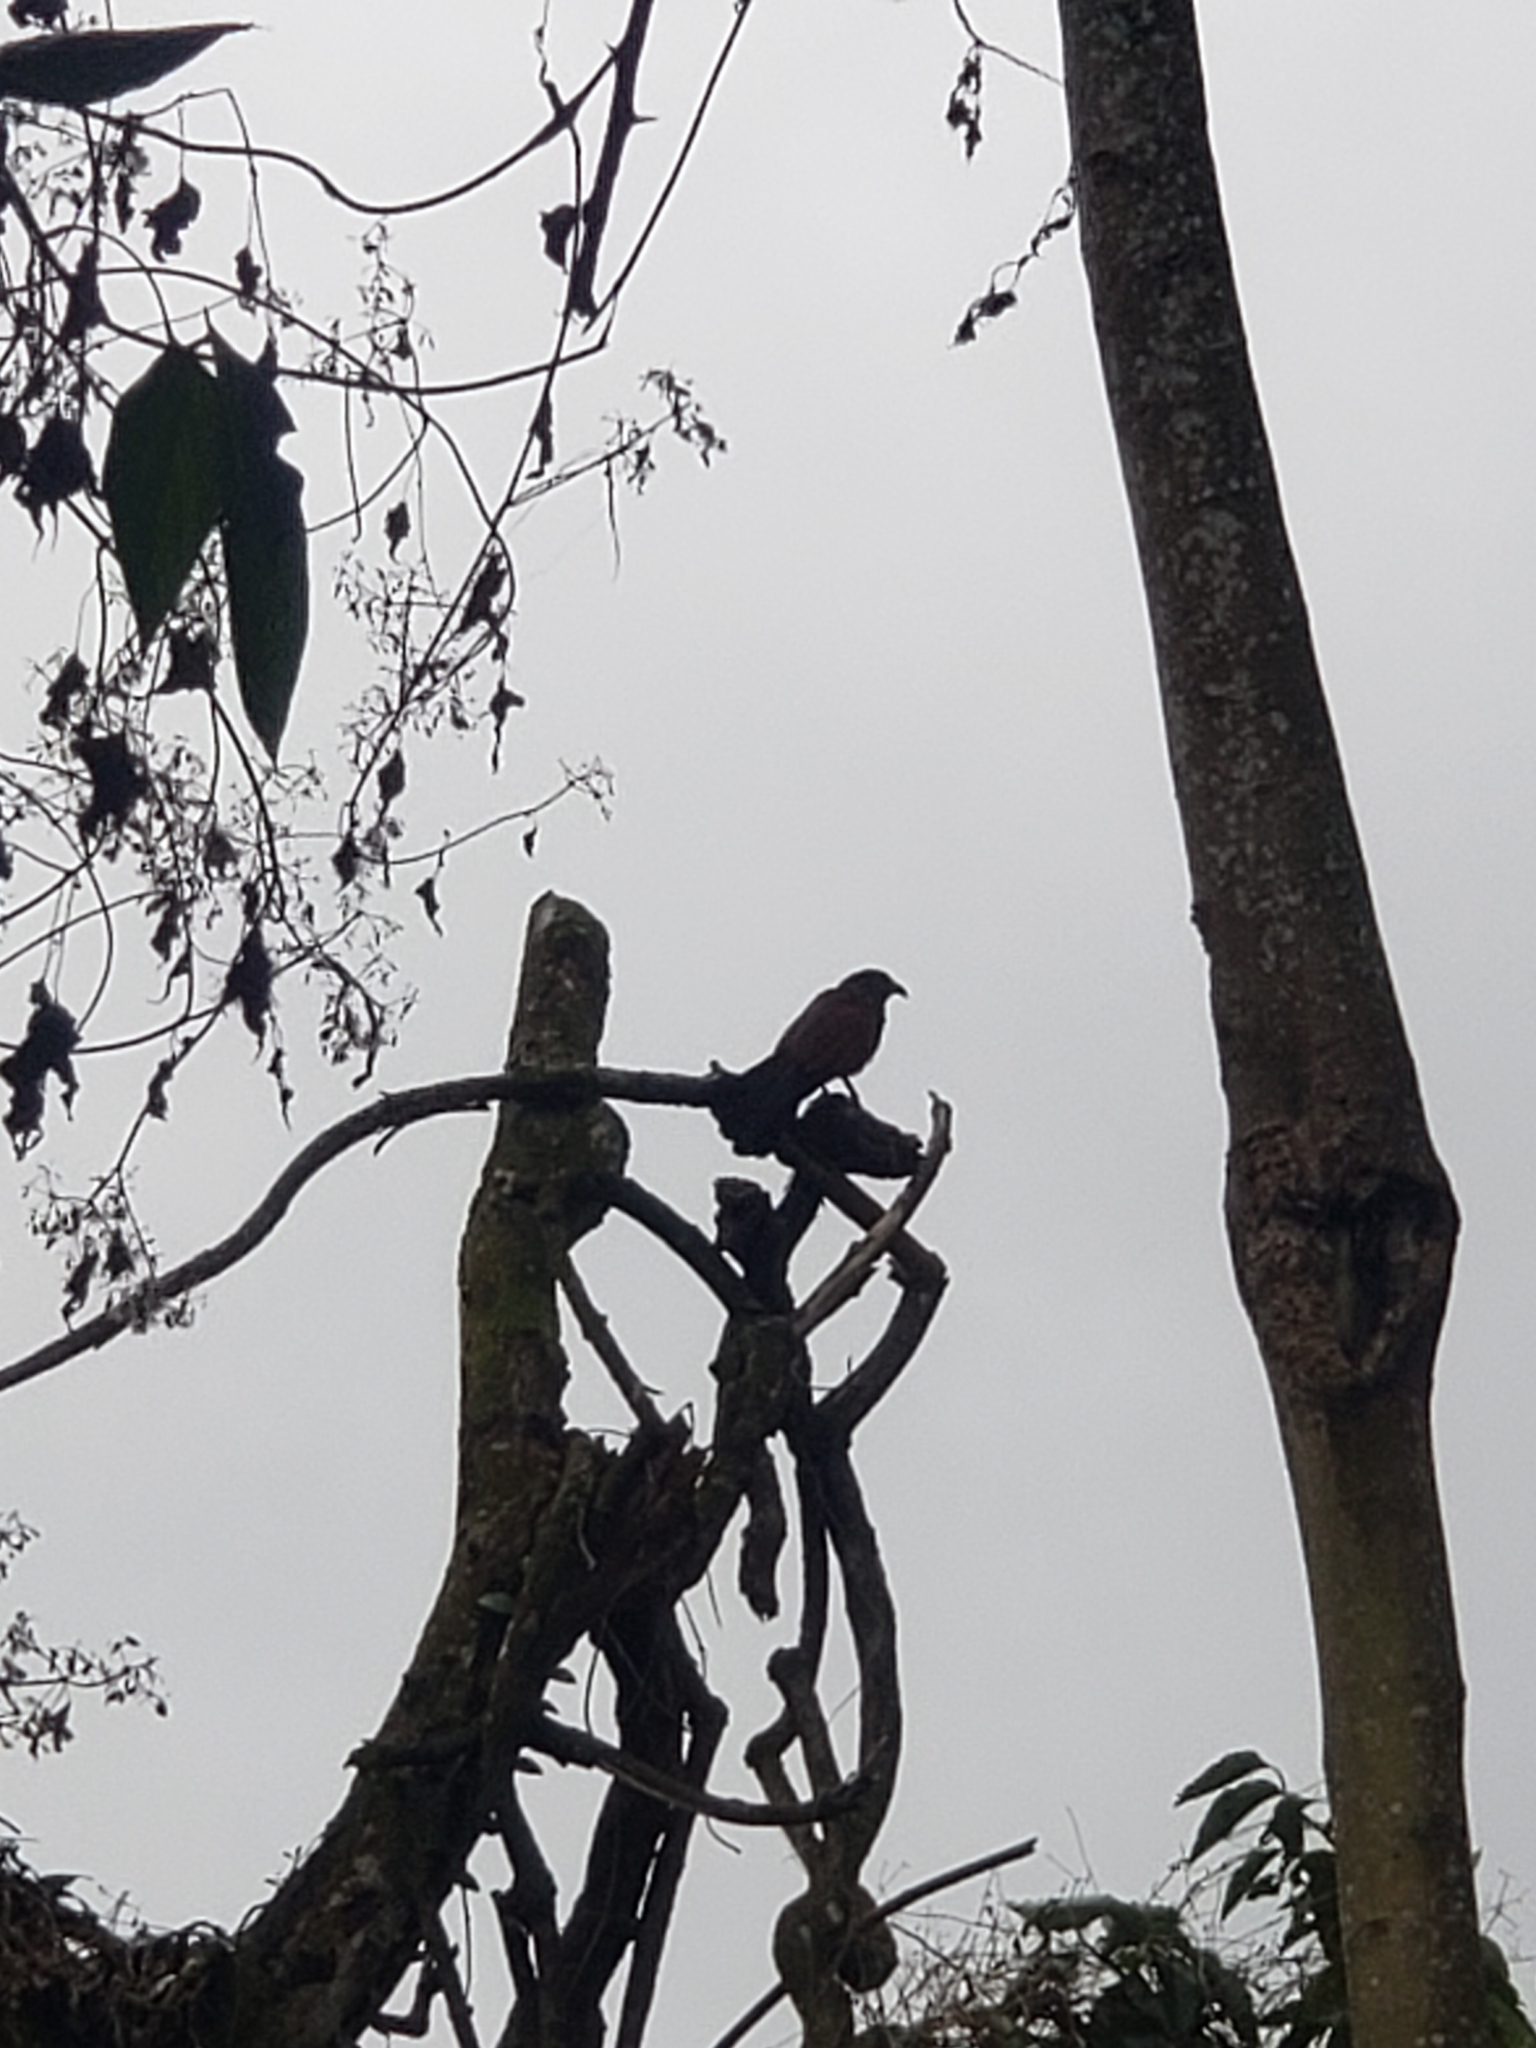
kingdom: Animalia
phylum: Chordata
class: Aves
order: Cuculiformes
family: Cuculidae
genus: Centropus
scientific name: Centropus sinensis
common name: Greater coucal
